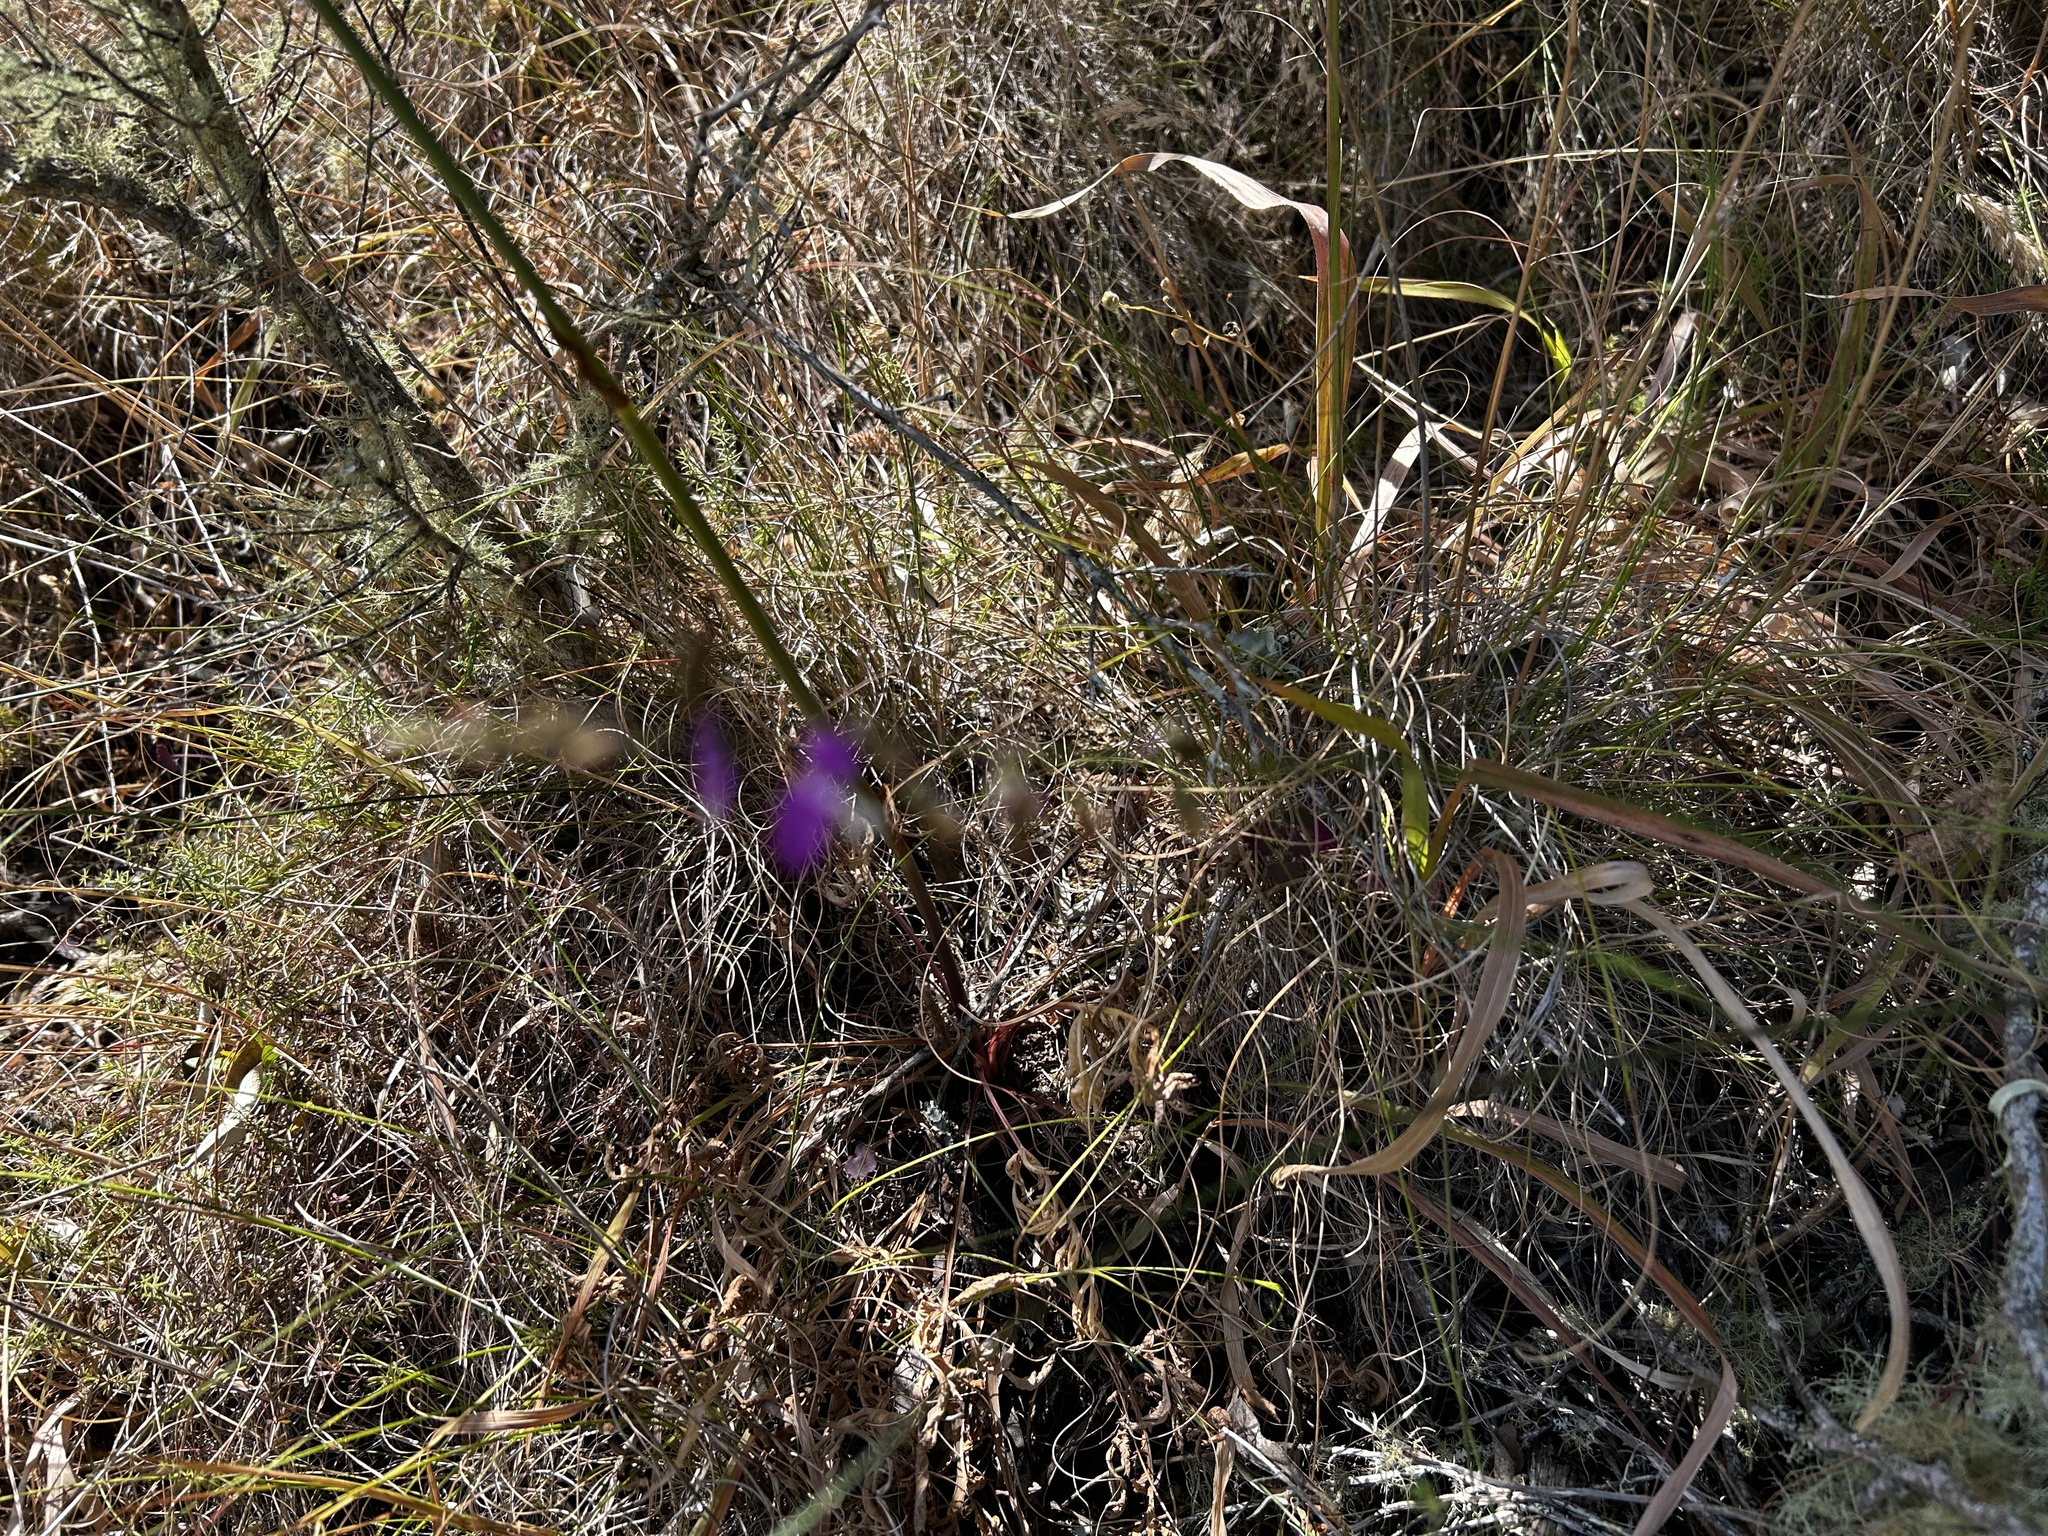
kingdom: Plantae
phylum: Tracheophyta
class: Magnoliopsida
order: Fabales
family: Polygalaceae
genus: Polygala
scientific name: Polygala garcini
